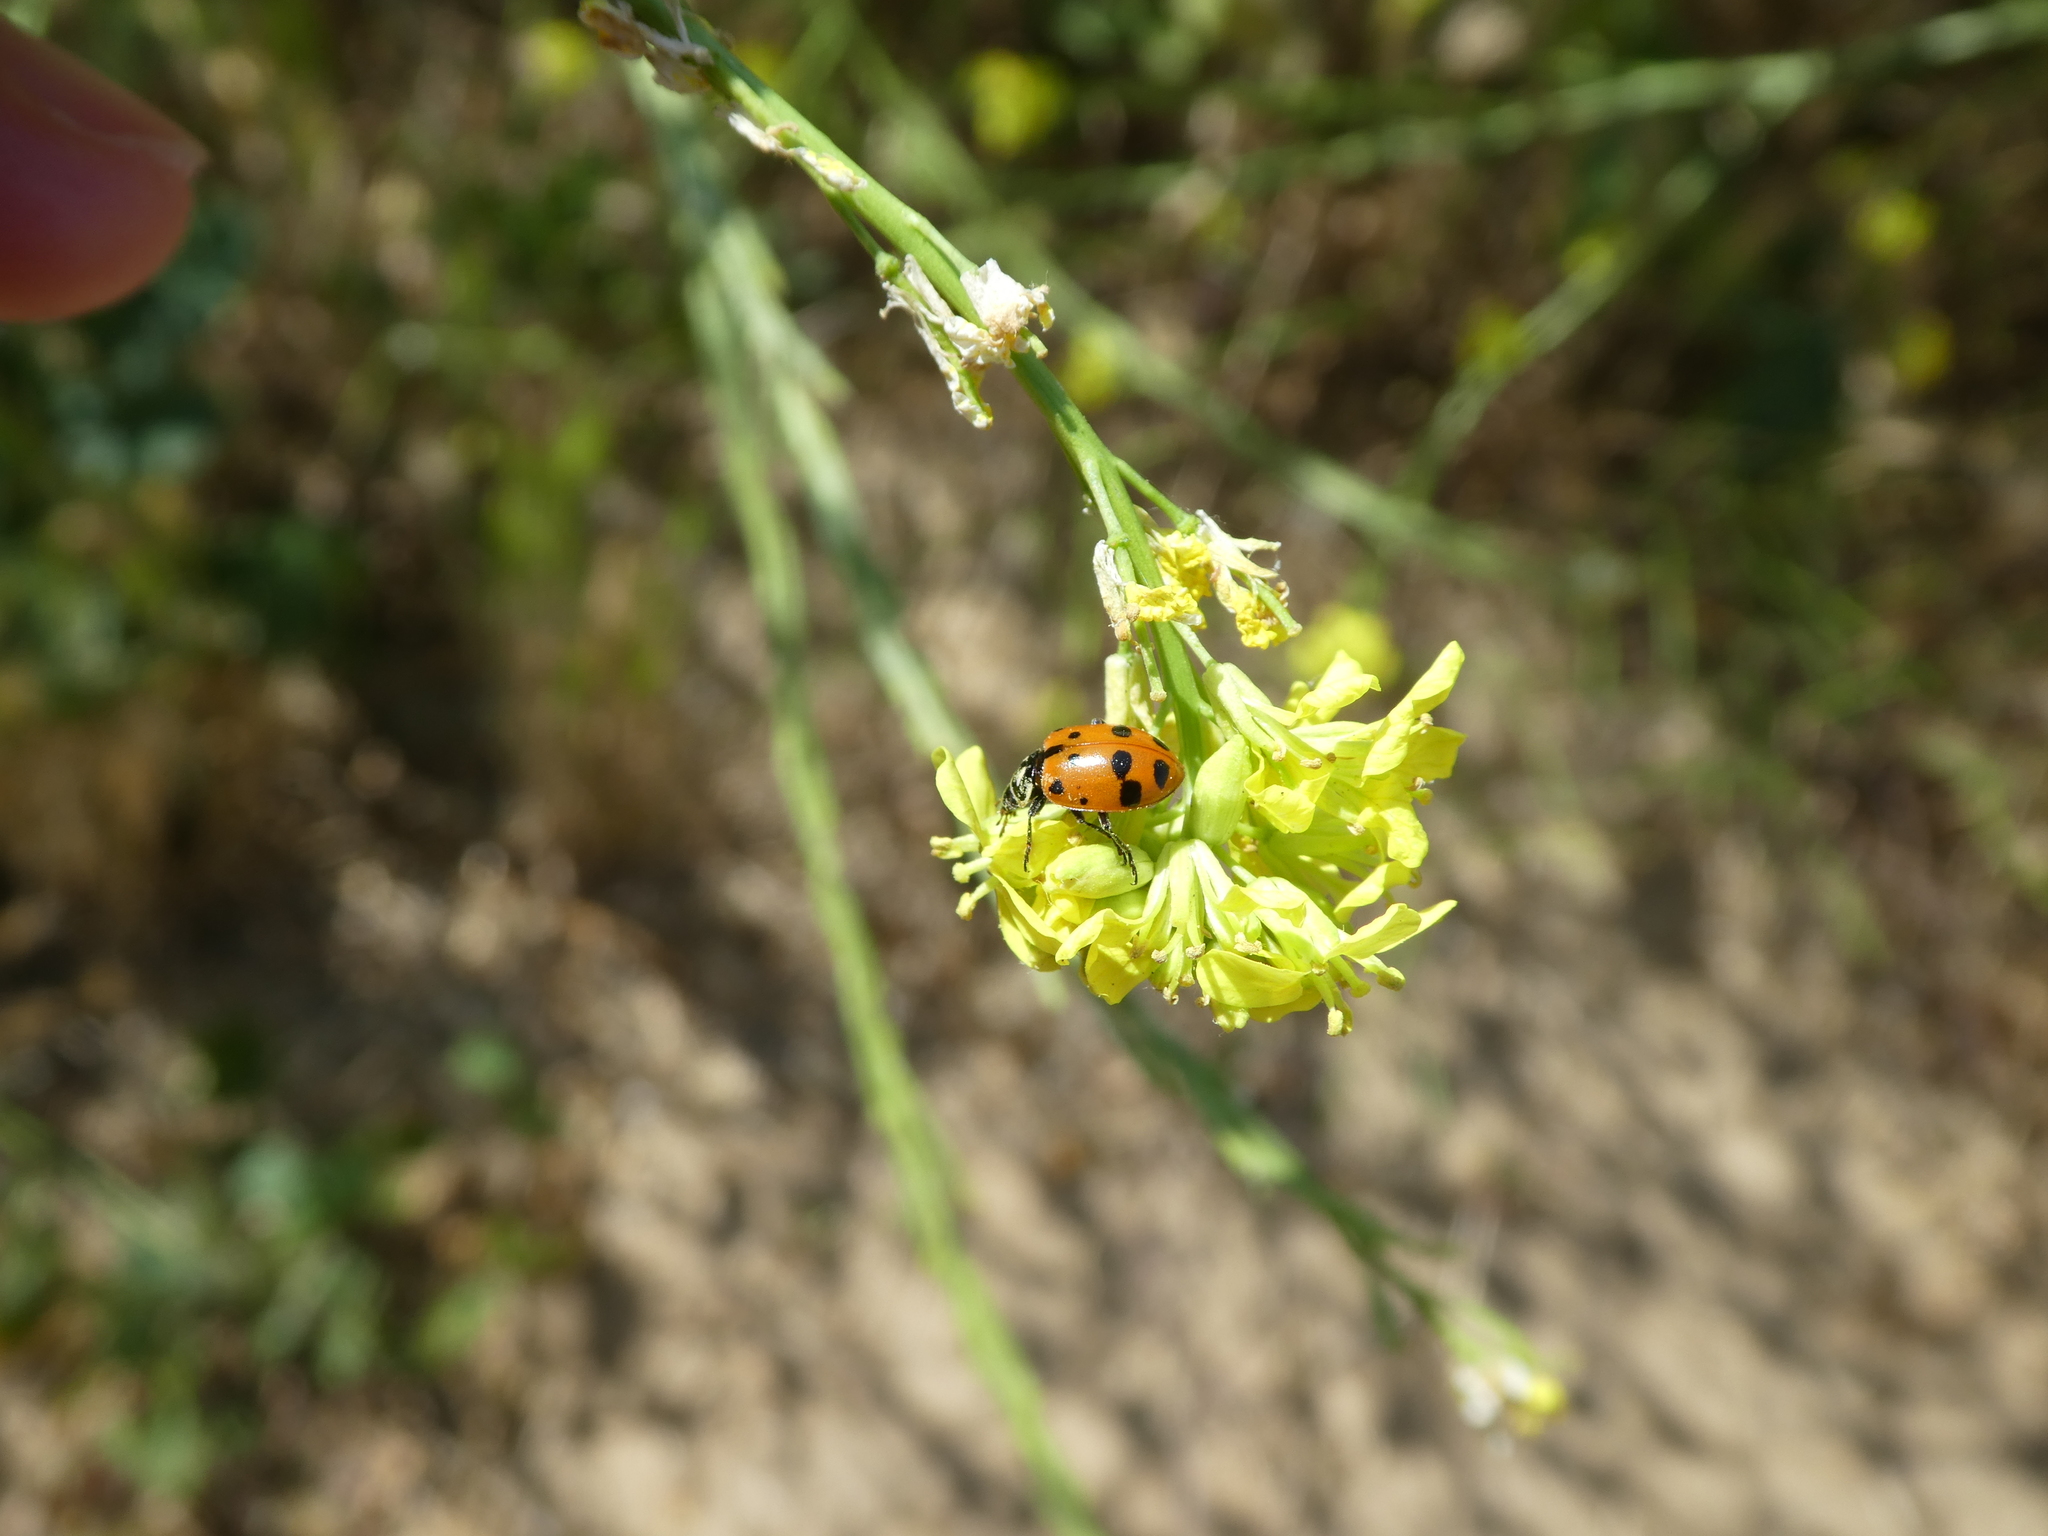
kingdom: Animalia
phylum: Arthropoda
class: Insecta
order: Coleoptera
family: Coccinellidae
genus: Hippodamia
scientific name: Hippodamia convergens
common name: Convergent lady beetle
